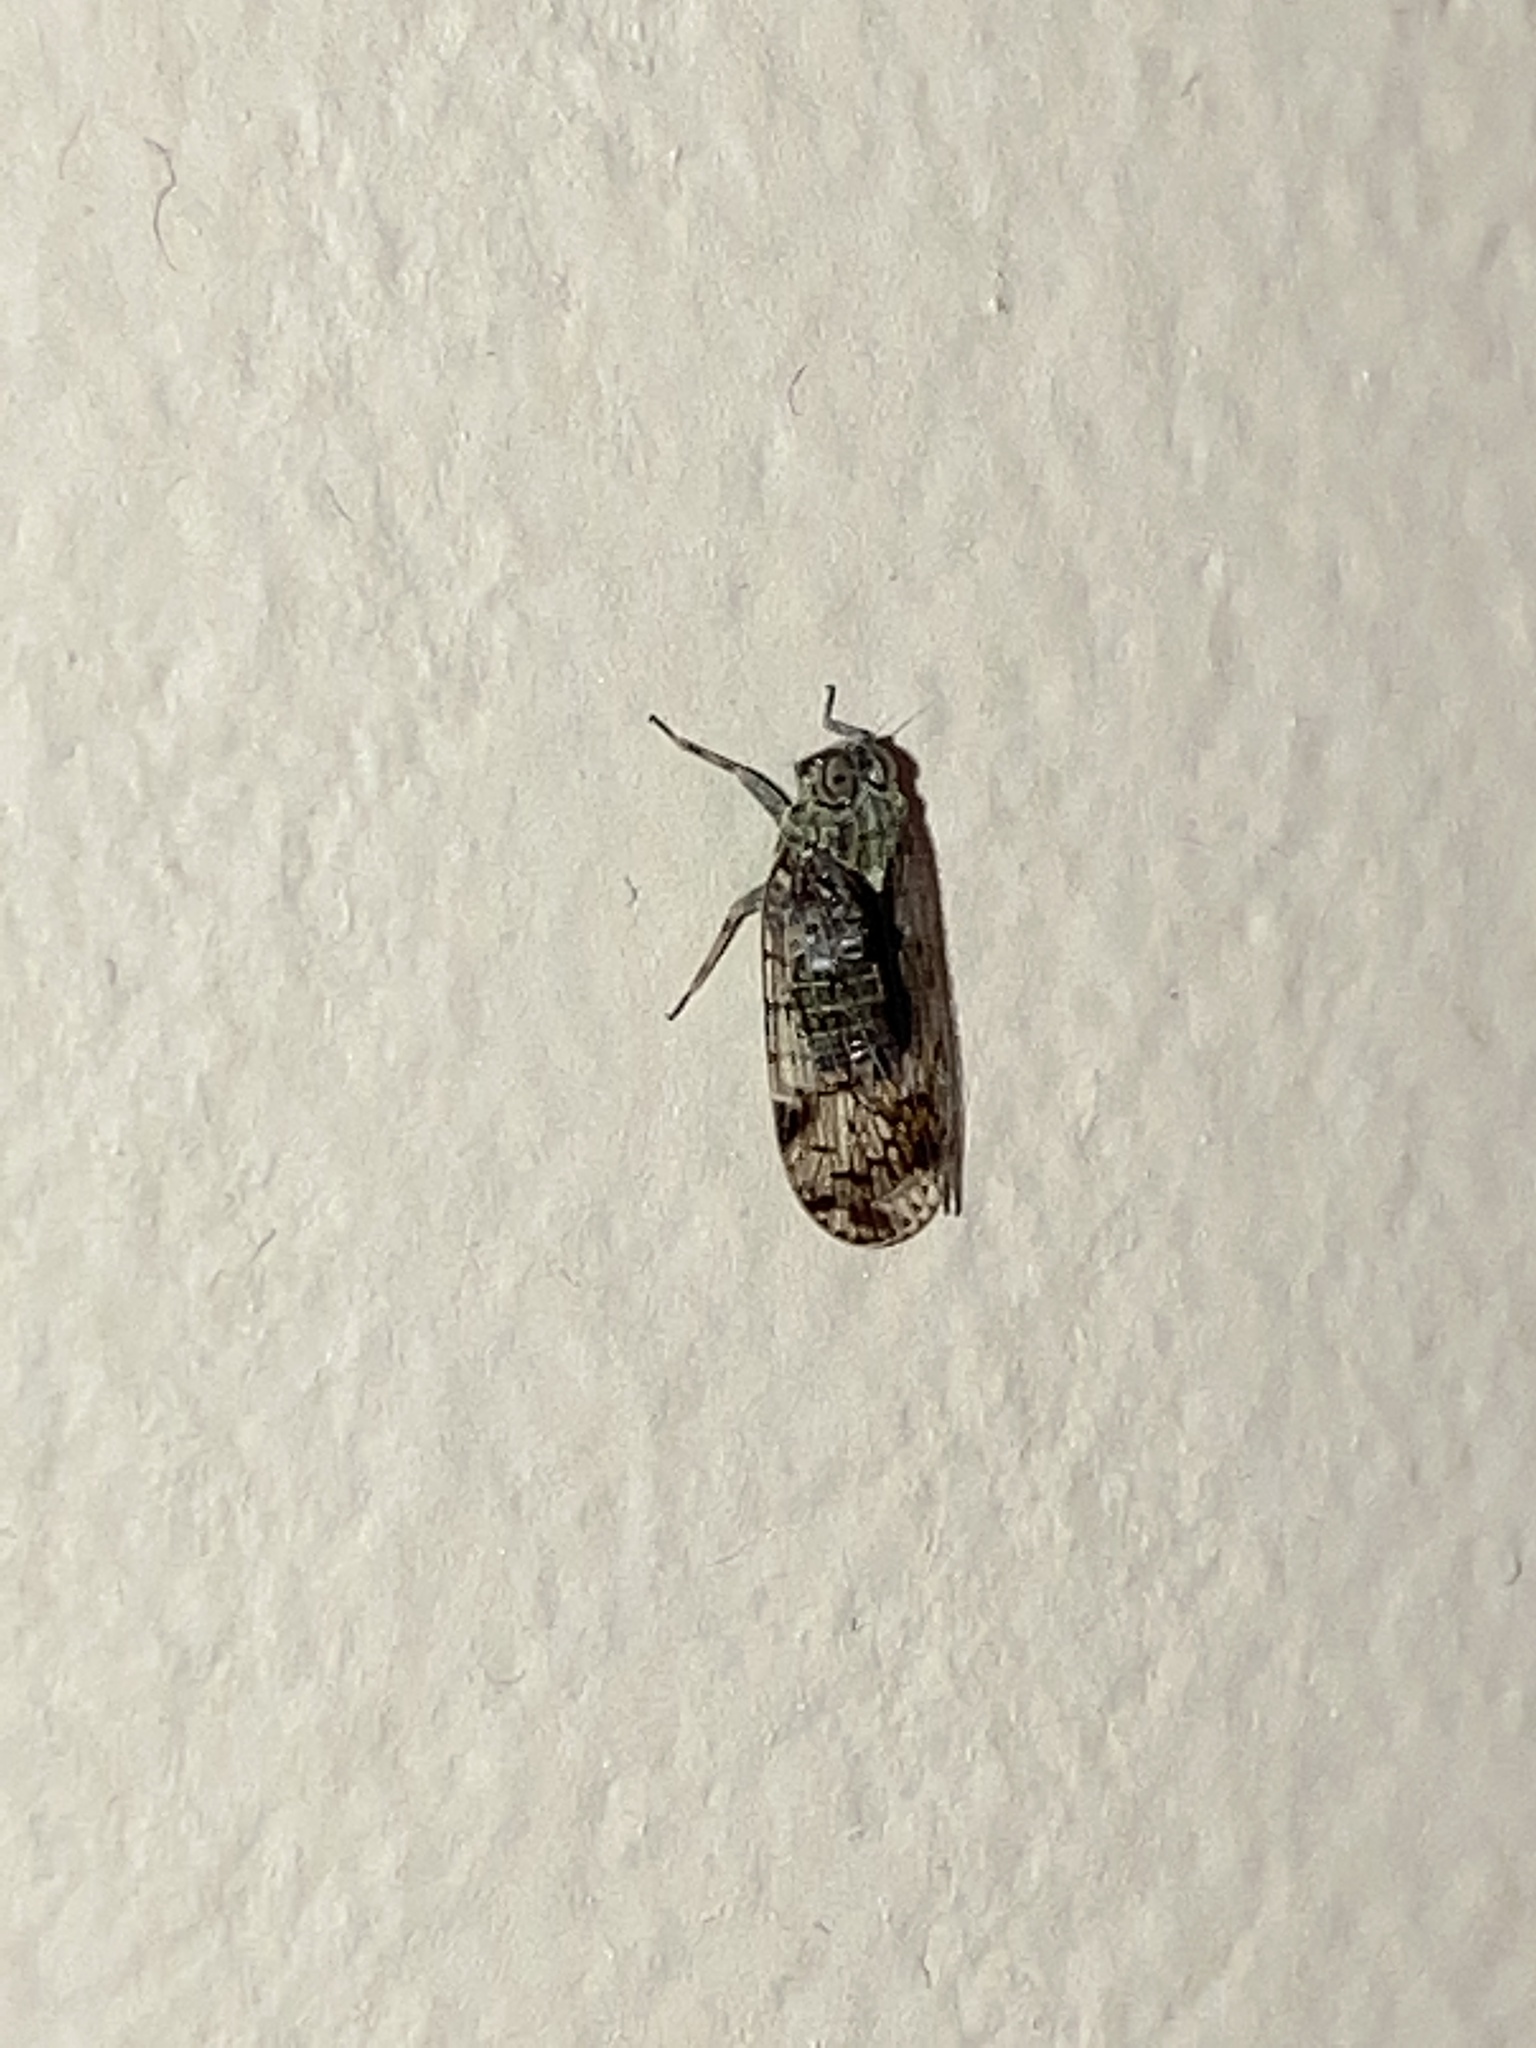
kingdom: Animalia
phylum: Arthropoda
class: Insecta
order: Hemiptera
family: Cixiidae
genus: Melanoliarus
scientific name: Melanoliarus placitus
